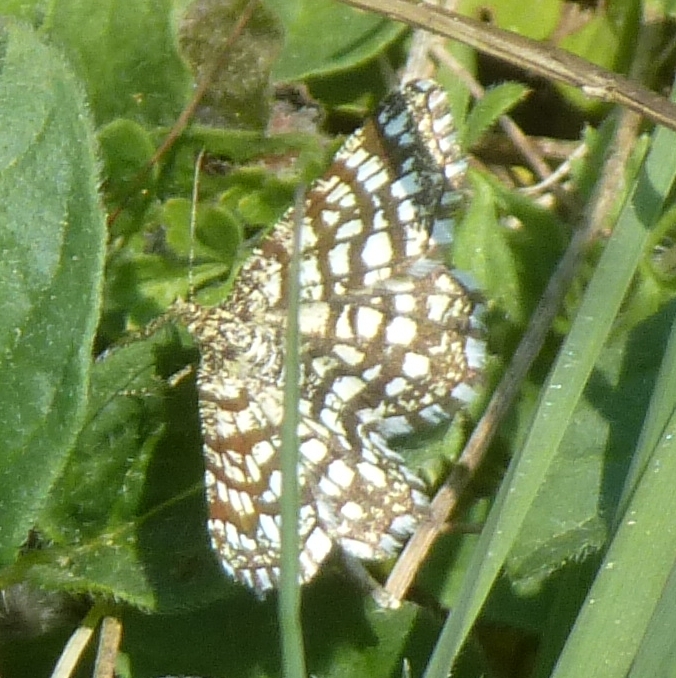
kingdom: Animalia
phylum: Arthropoda
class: Insecta
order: Lepidoptera
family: Geometridae
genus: Chiasmia
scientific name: Chiasmia clathrata
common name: Latticed heath
